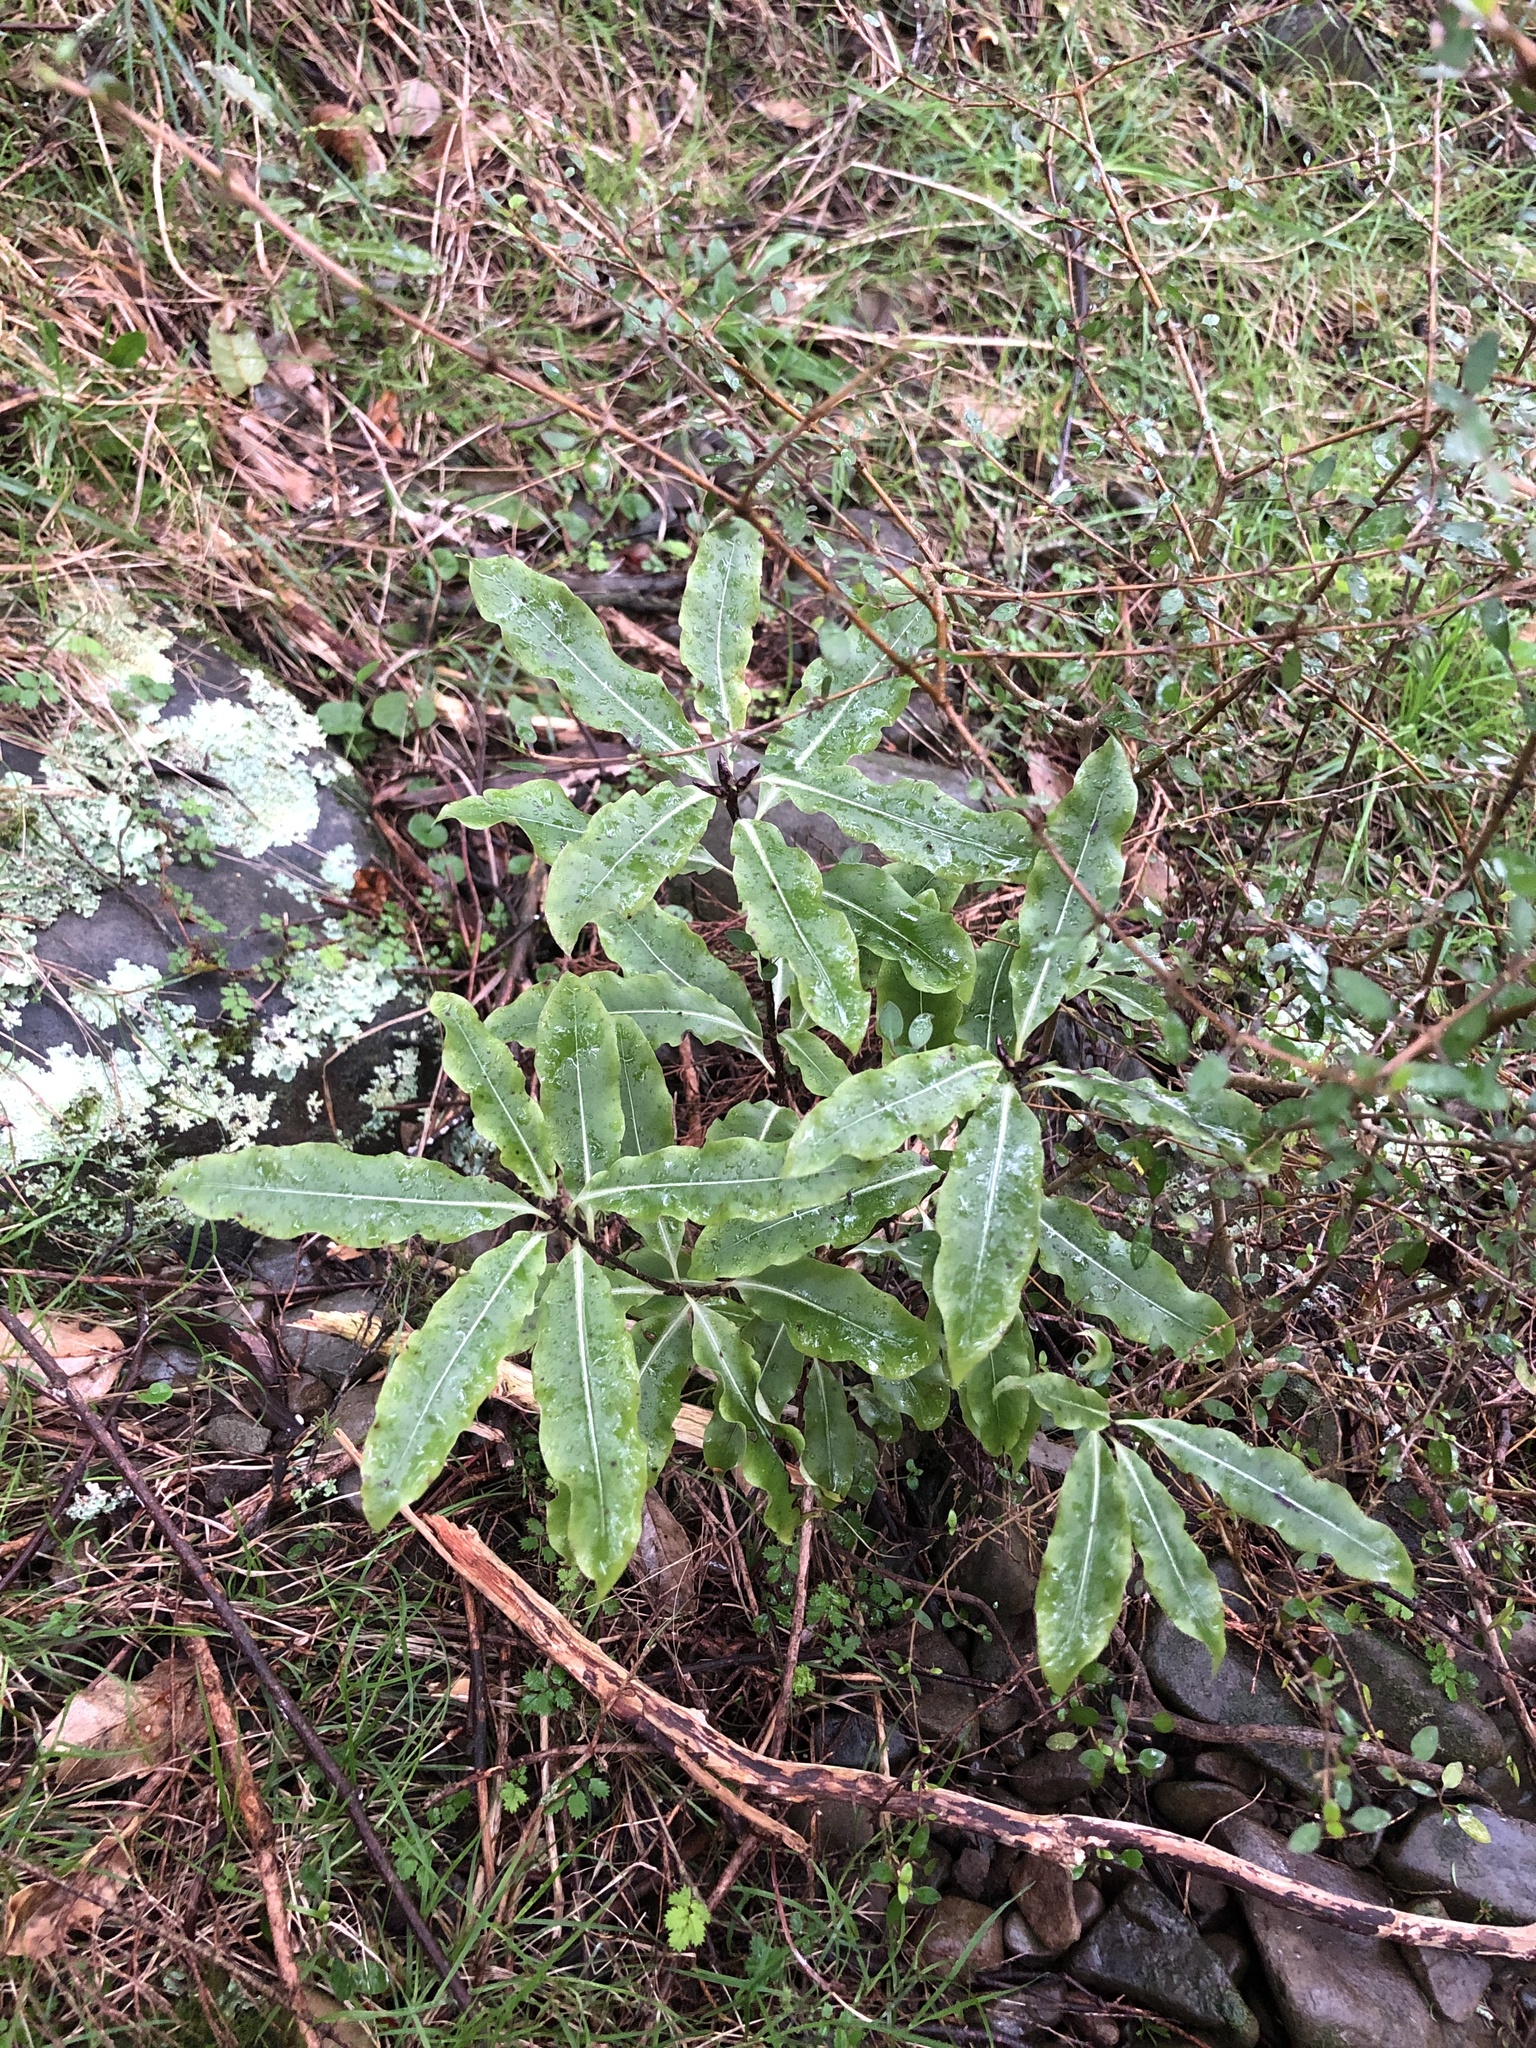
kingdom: Plantae
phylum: Tracheophyta
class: Magnoliopsida
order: Apiales
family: Pittosporaceae
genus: Pittosporum
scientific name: Pittosporum eugenioides
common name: Lemonwood
